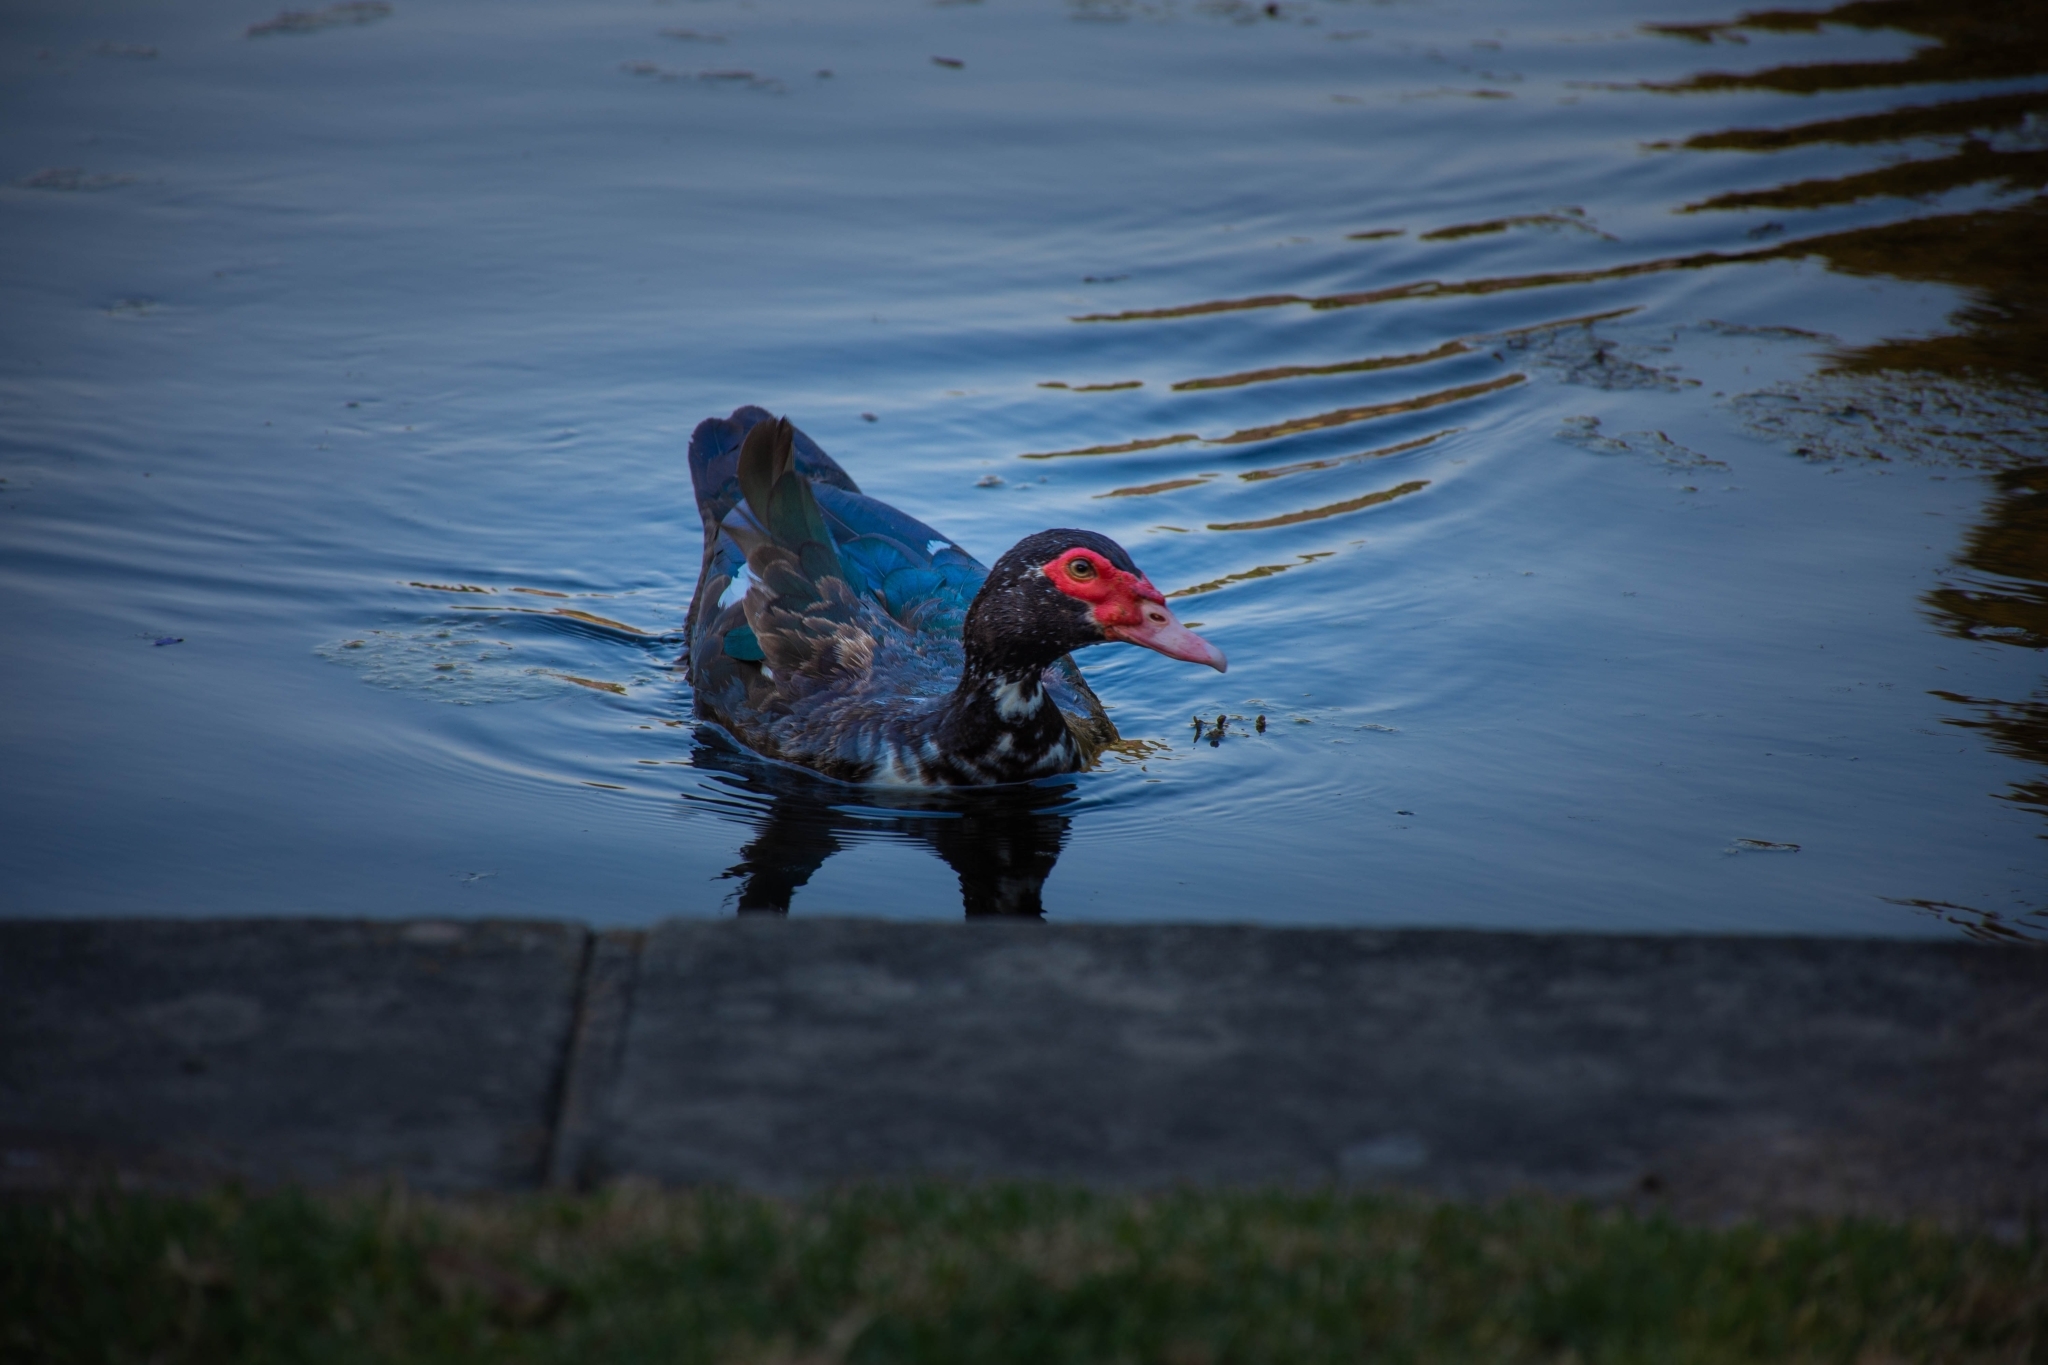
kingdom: Animalia
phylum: Chordata
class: Aves
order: Anseriformes
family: Anatidae
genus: Cairina
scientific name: Cairina moschata
